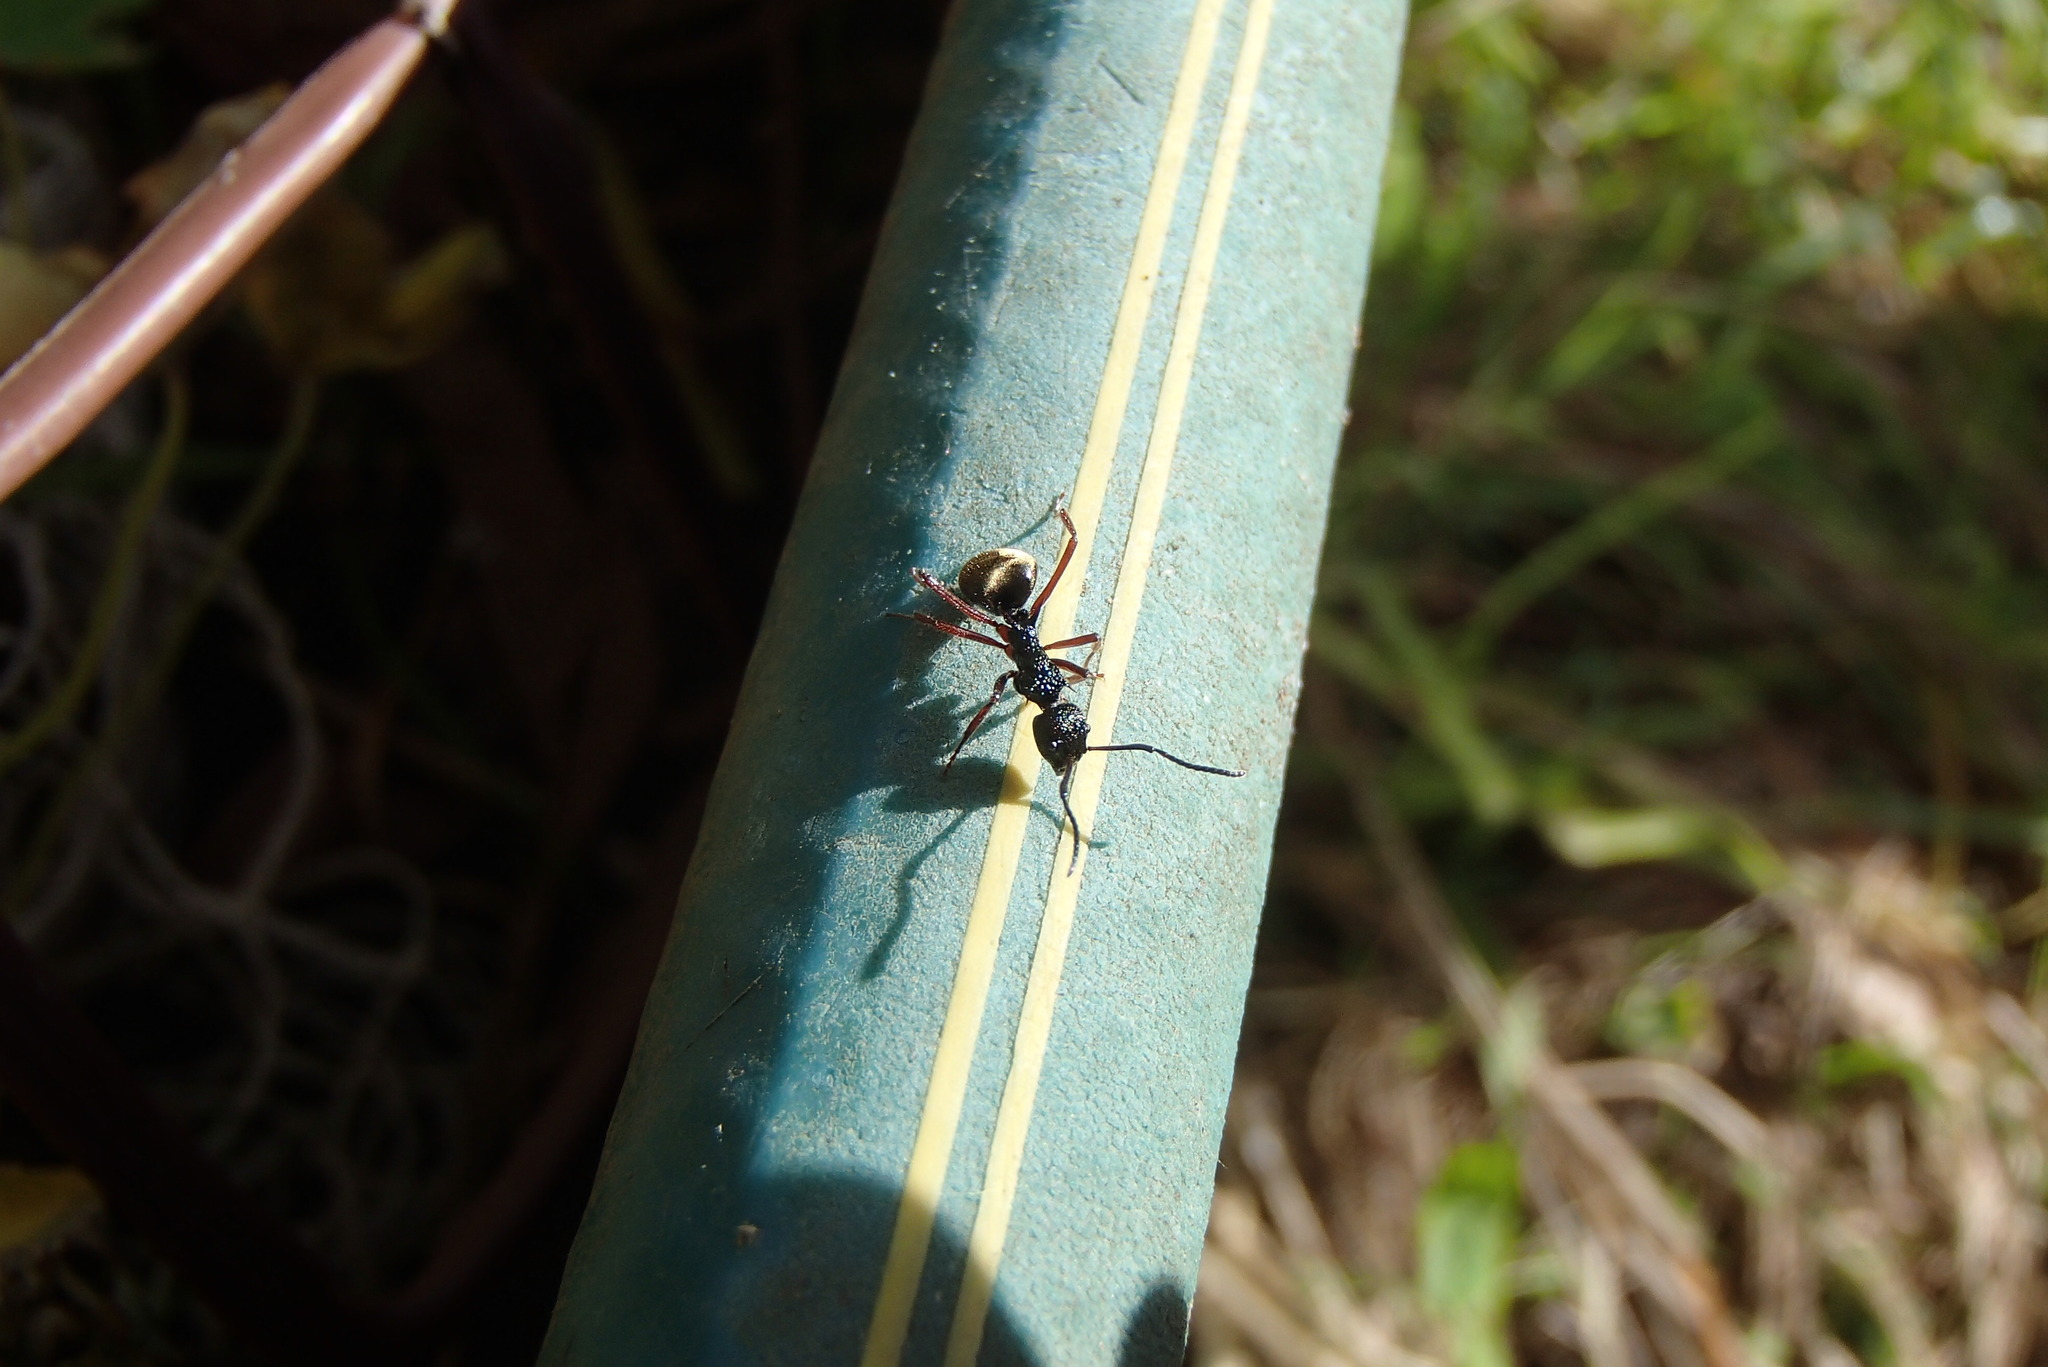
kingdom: Animalia
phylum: Arthropoda
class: Insecta
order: Hymenoptera
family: Formicidae
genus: Dolichoderus
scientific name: Dolichoderus doriae
